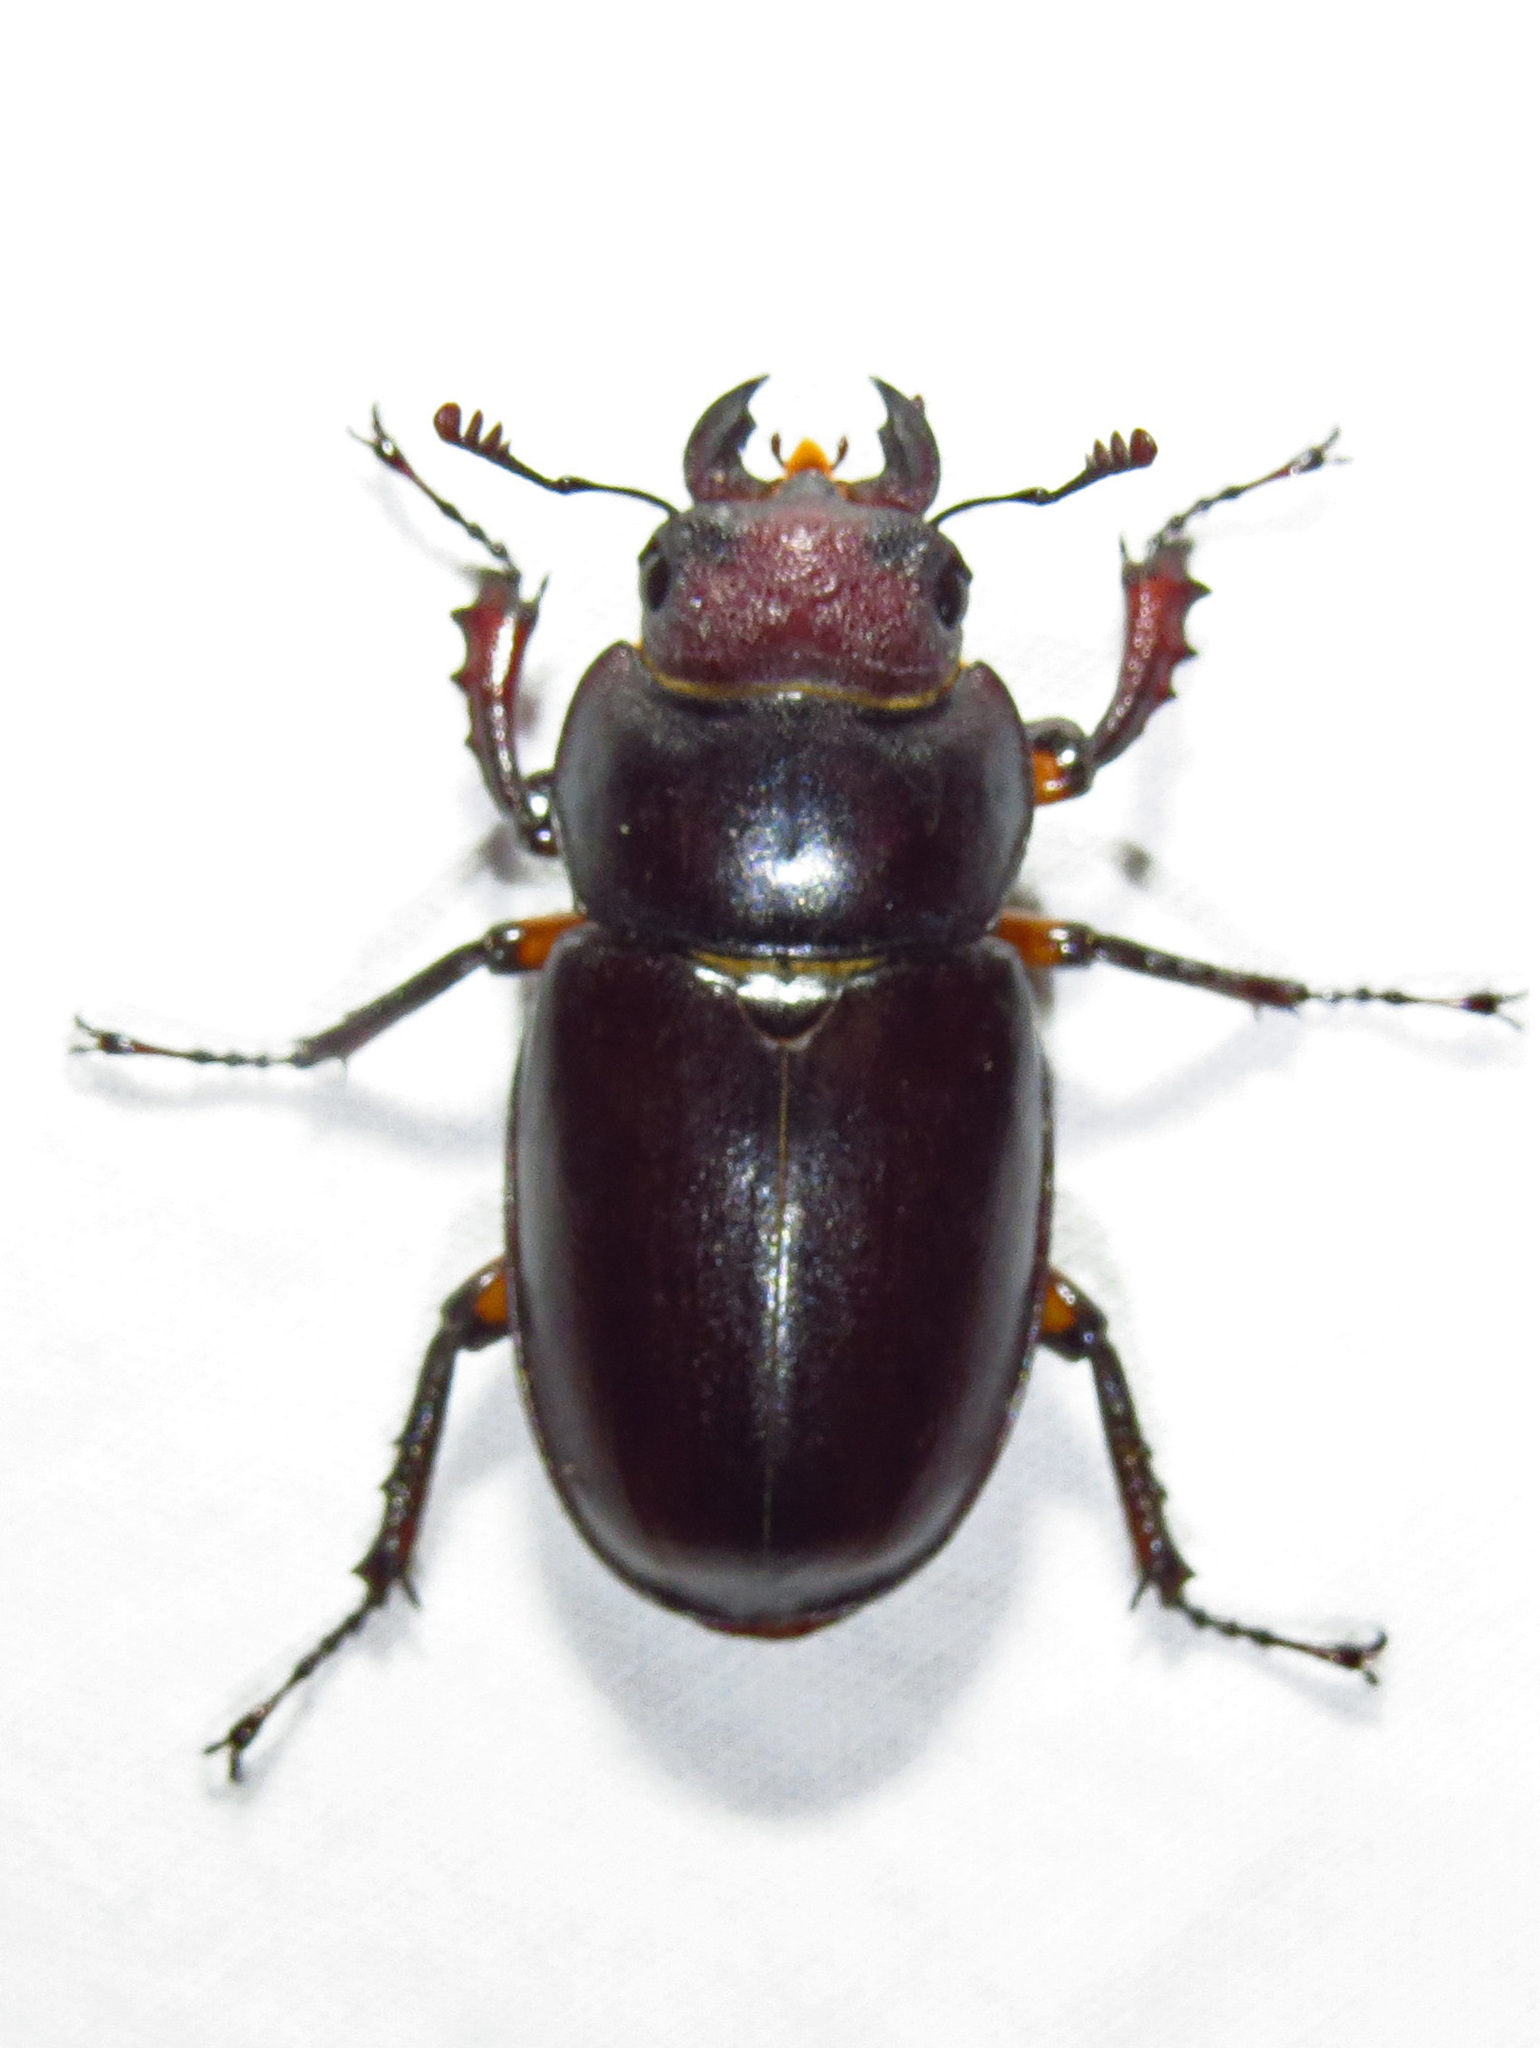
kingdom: Animalia
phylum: Arthropoda
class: Insecta
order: Coleoptera
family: Lucanidae
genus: Lucanus
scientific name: Lucanus capreolus
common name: Stag beetle
